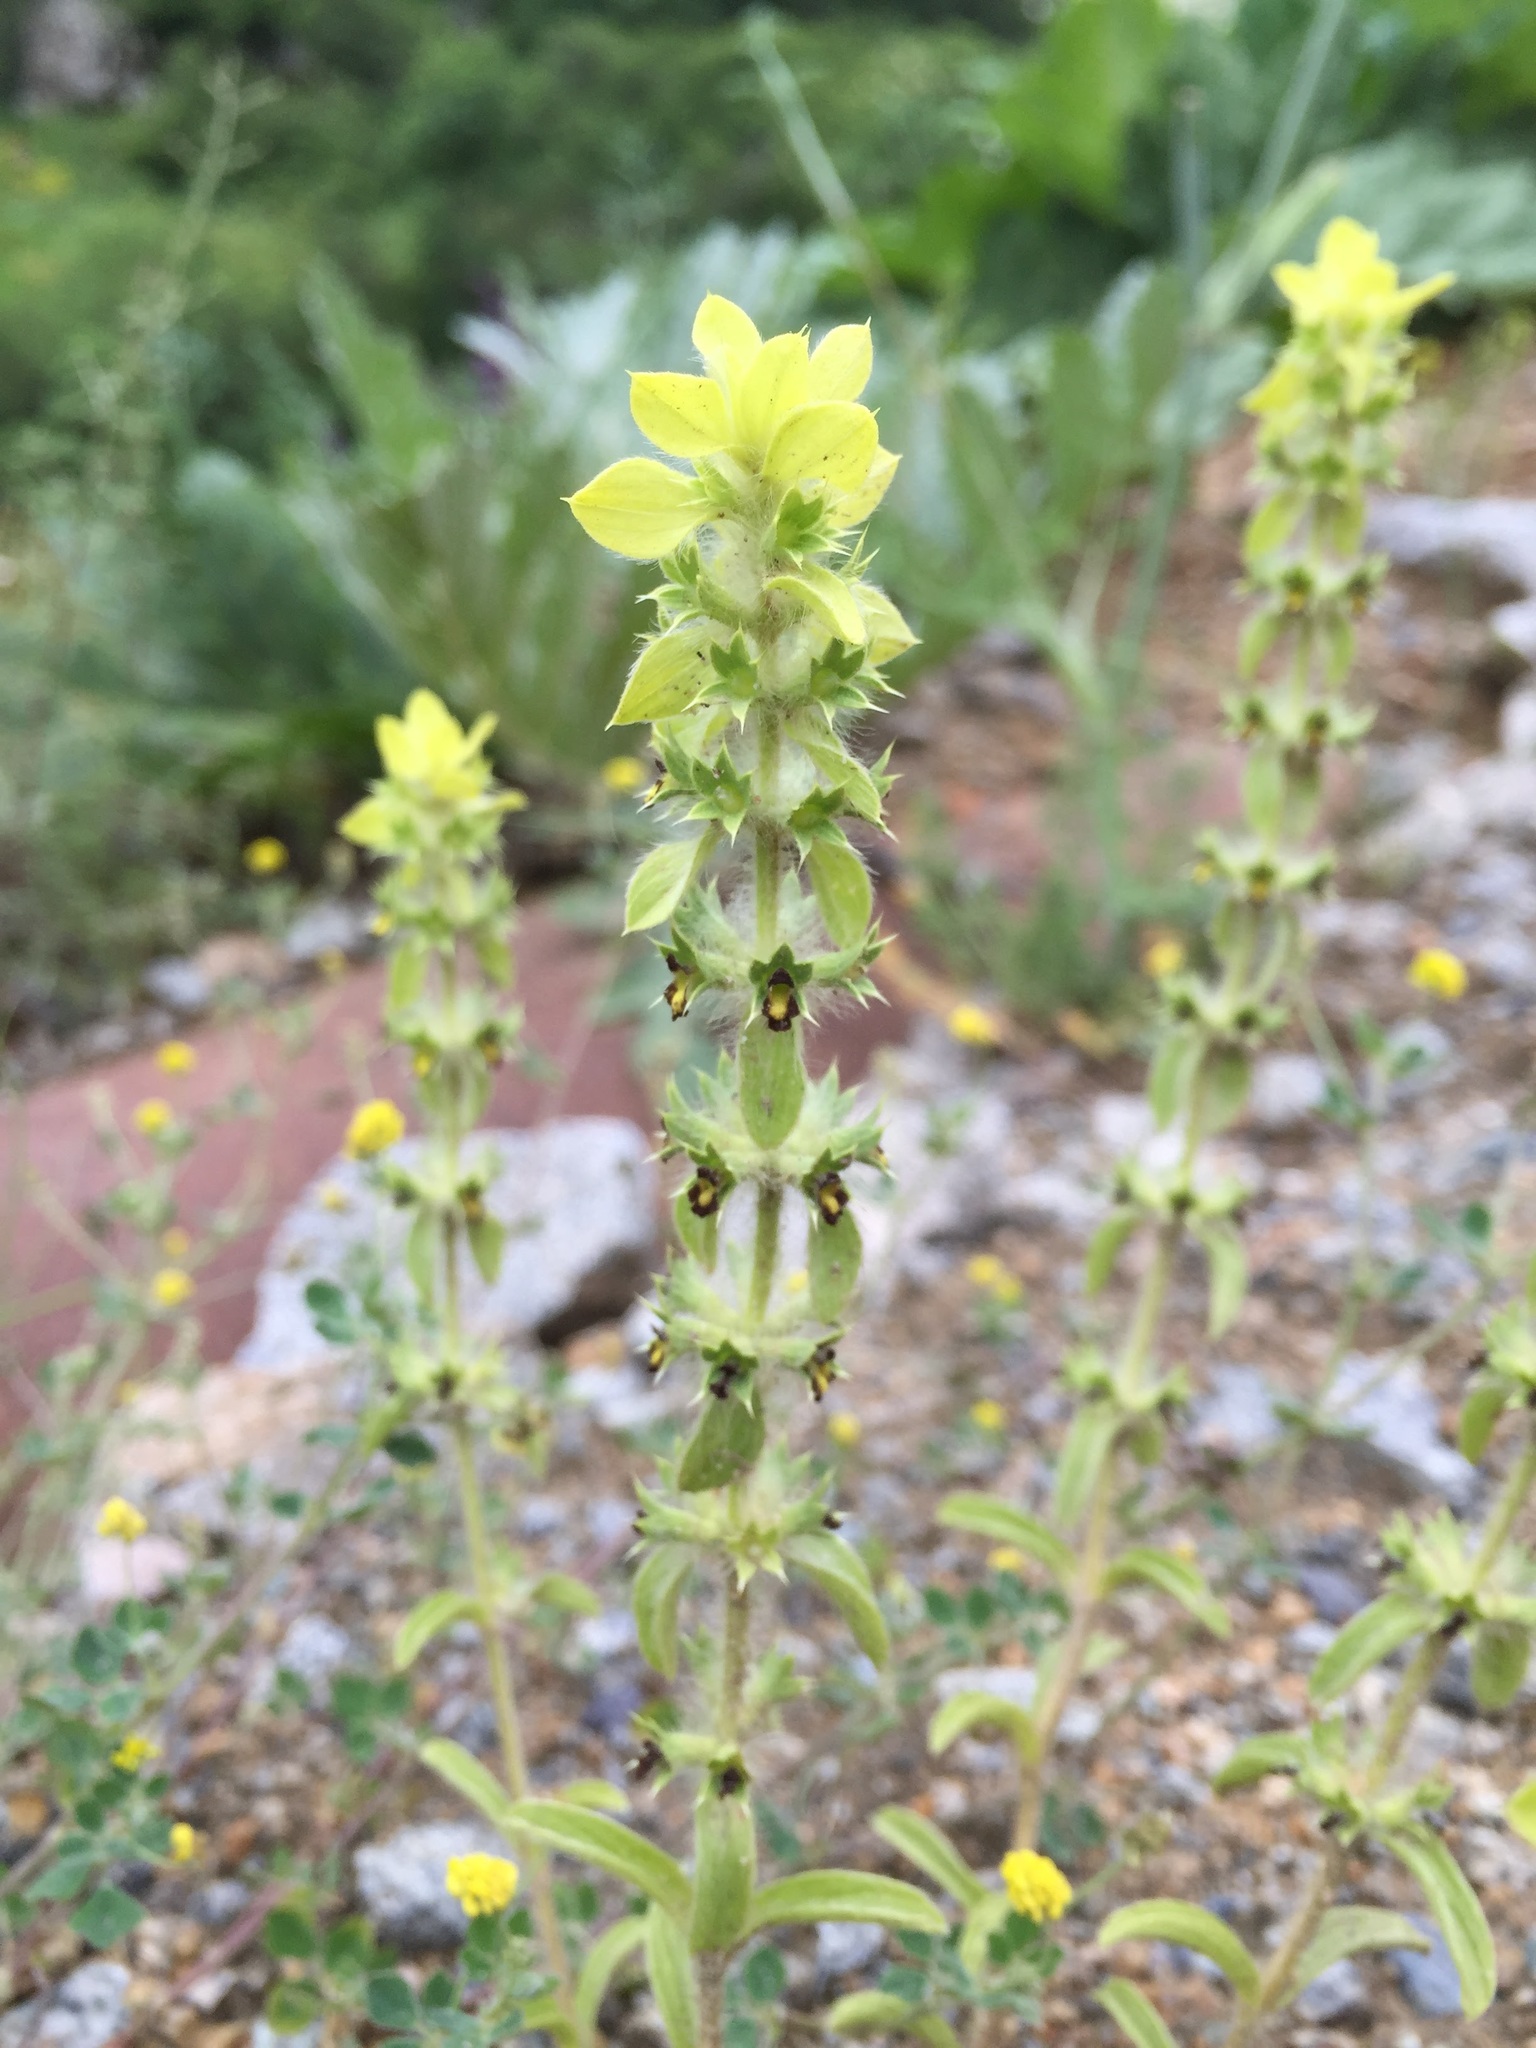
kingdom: Plantae
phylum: Tracheophyta
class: Magnoliopsida
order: Lamiales
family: Lamiaceae
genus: Sideritis
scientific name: Sideritis montana
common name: Mountain ironwort
